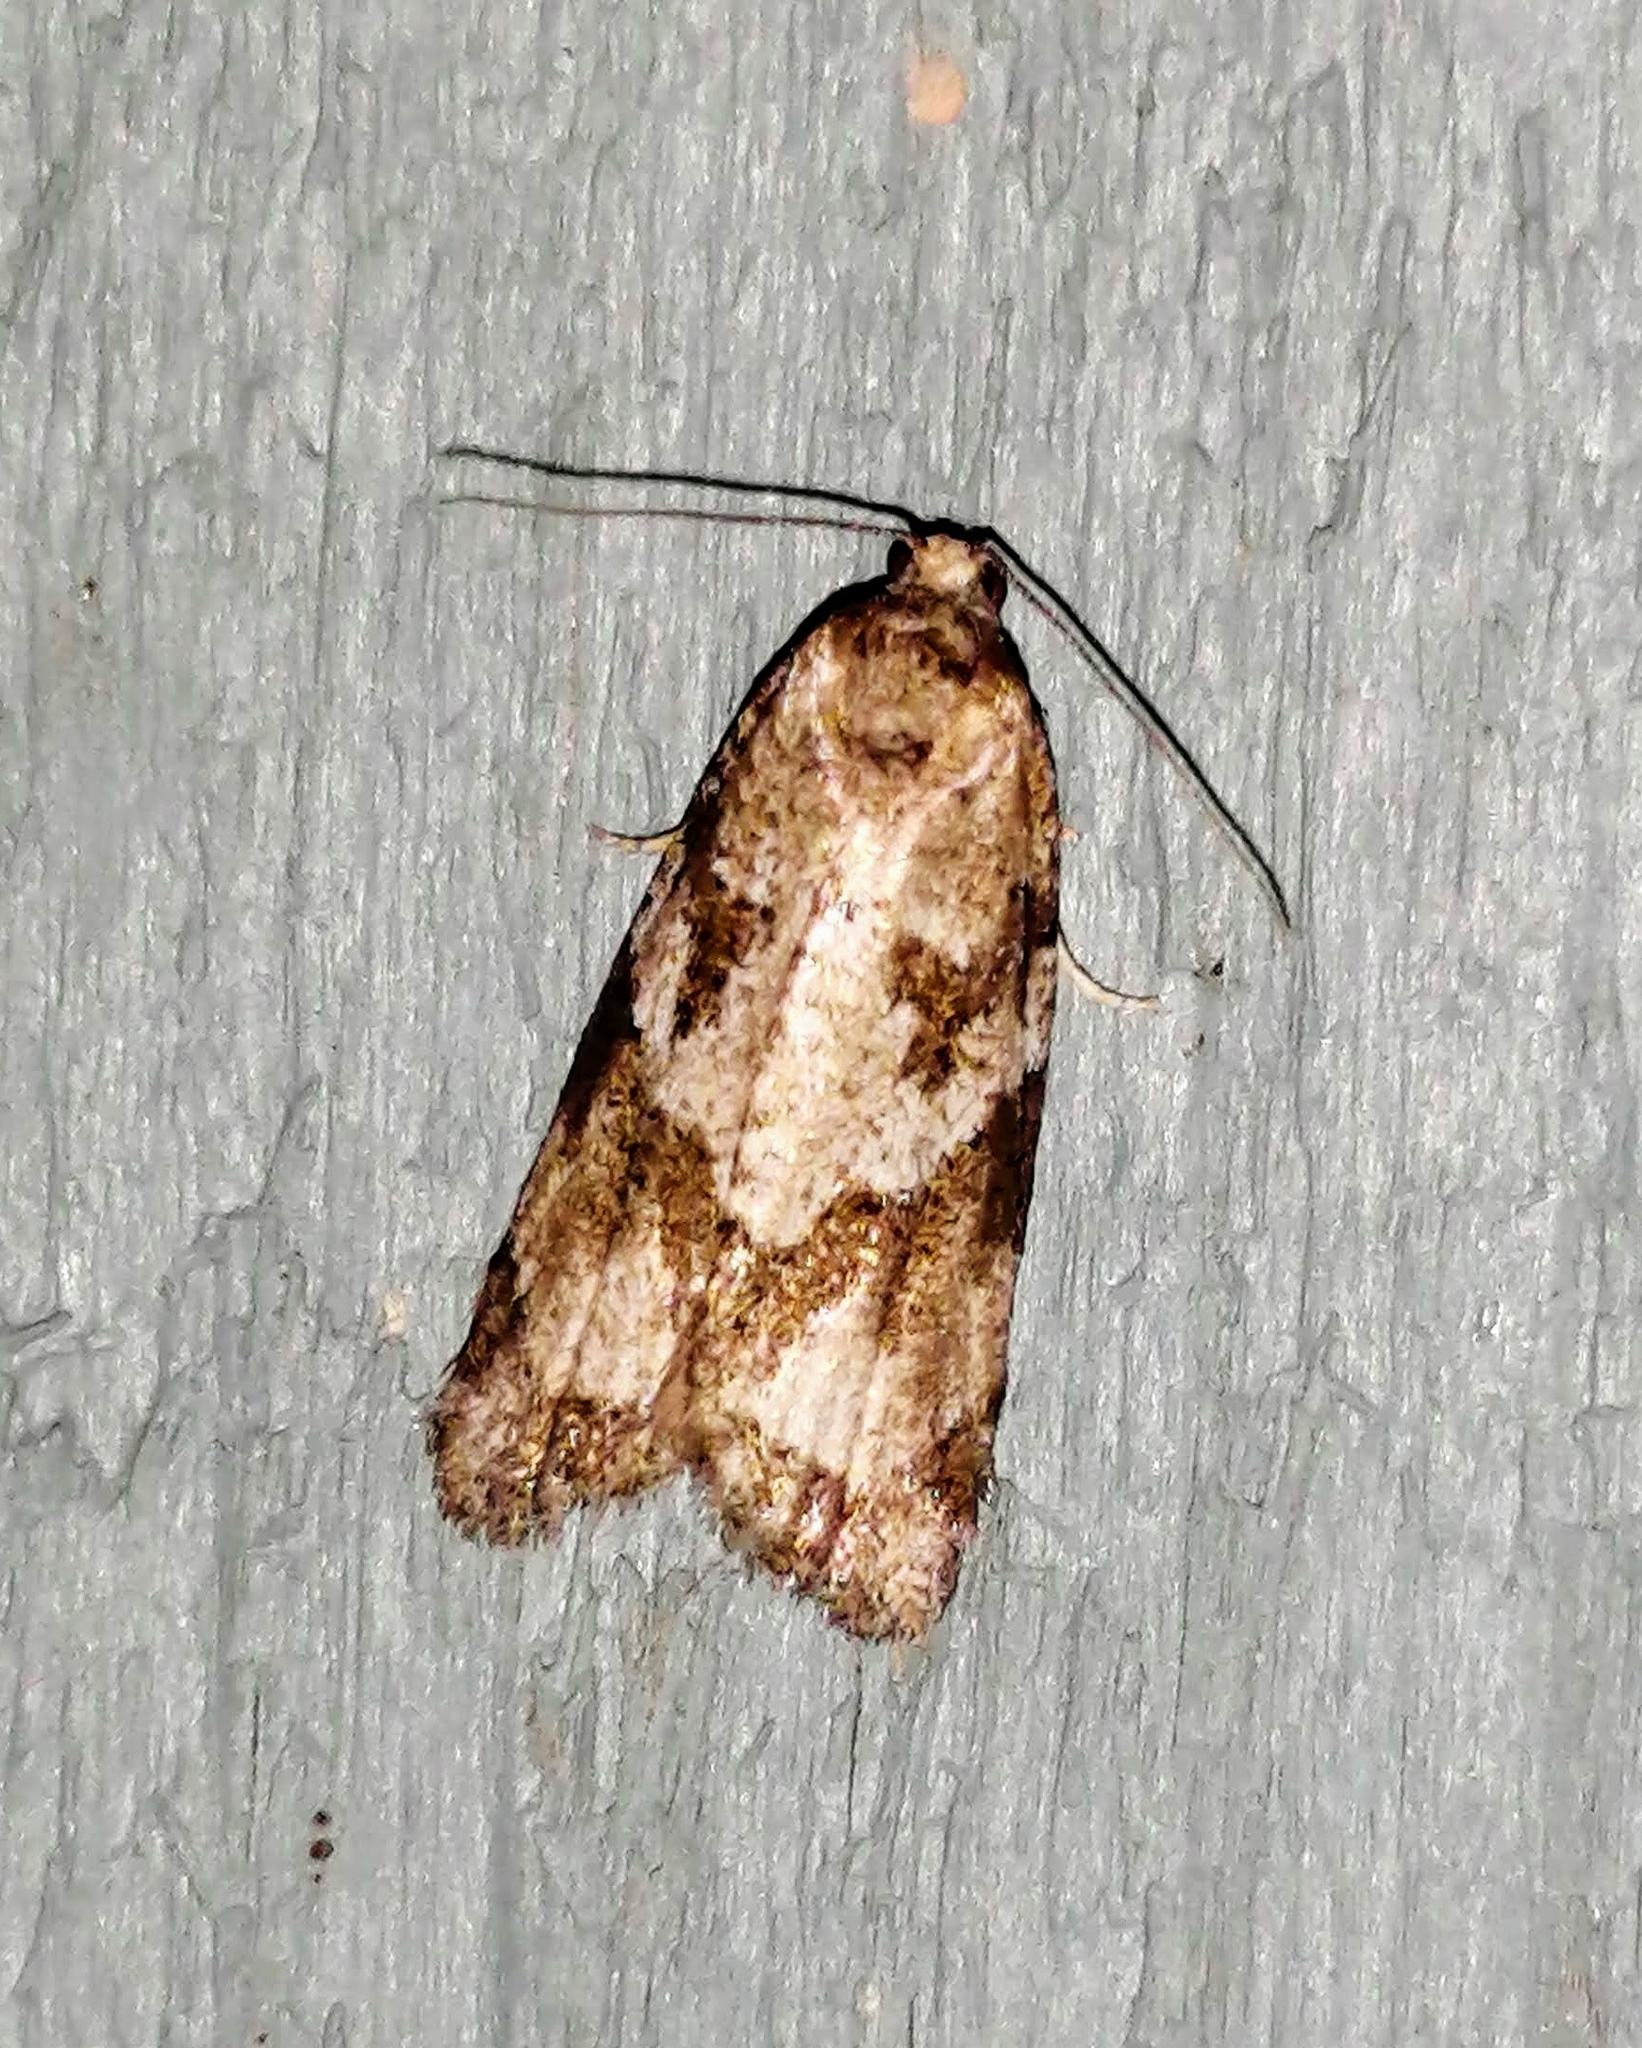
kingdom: Animalia
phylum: Arthropoda
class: Insecta
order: Lepidoptera
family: Tortricidae
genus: Cnephasia
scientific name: Cnephasia stephensiana
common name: Grey tortrix
